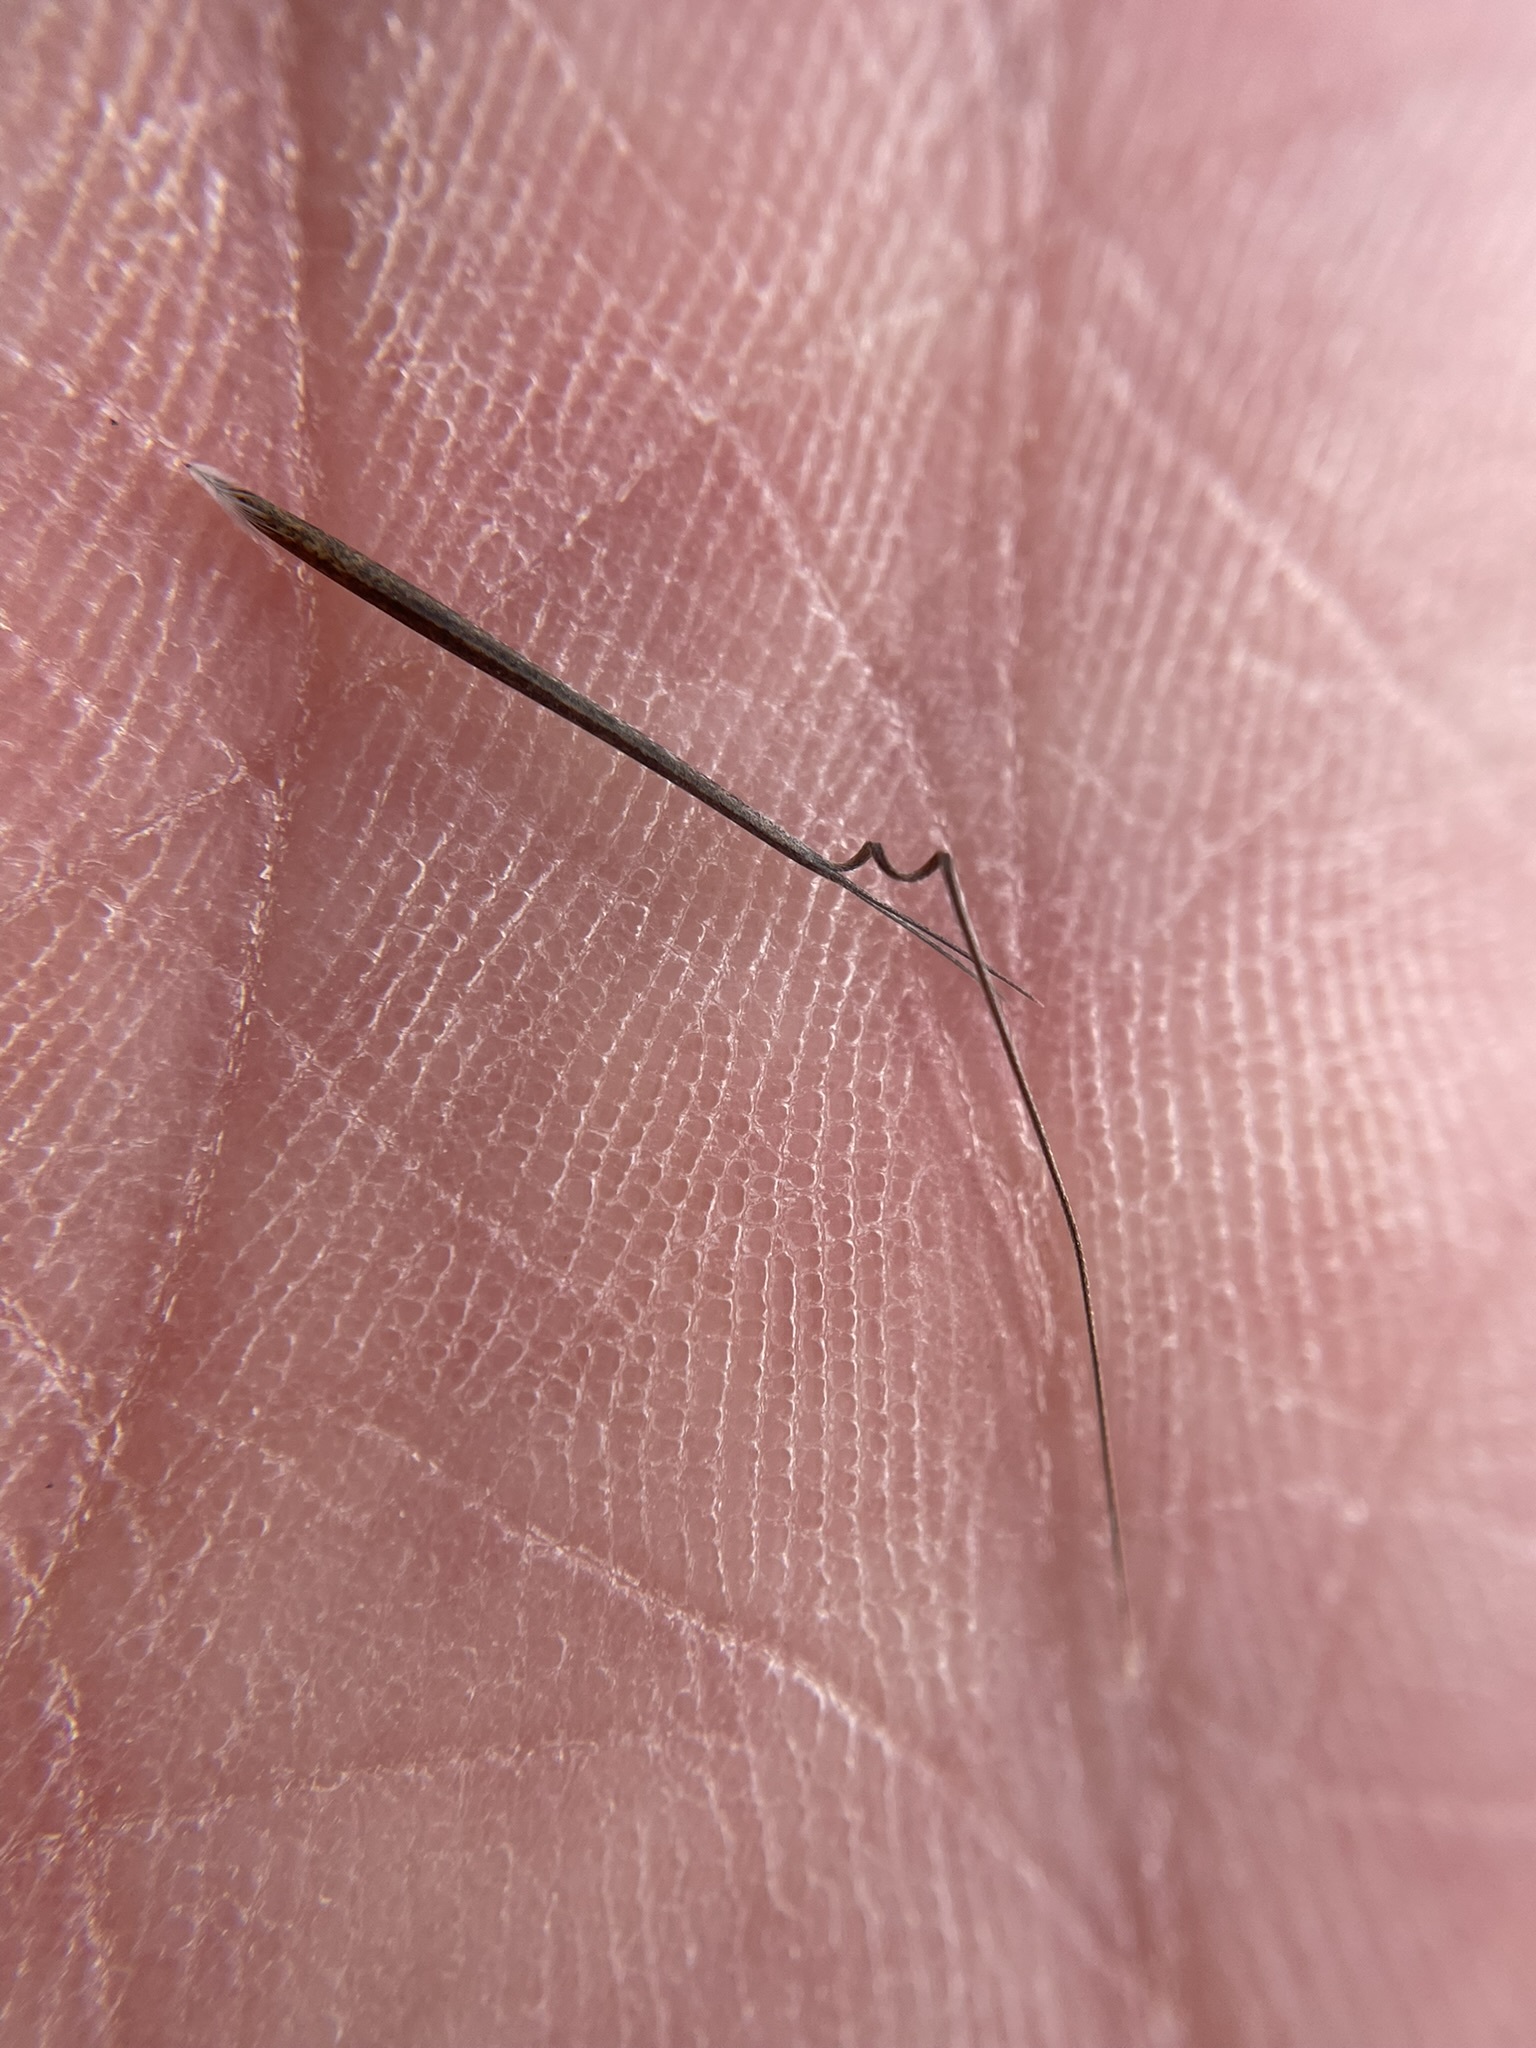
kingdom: Plantae
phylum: Tracheophyta
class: Liliopsida
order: Poales
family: Poaceae
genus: Aristida
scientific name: Aristida dichotoma
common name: Churchmouse three-awn
